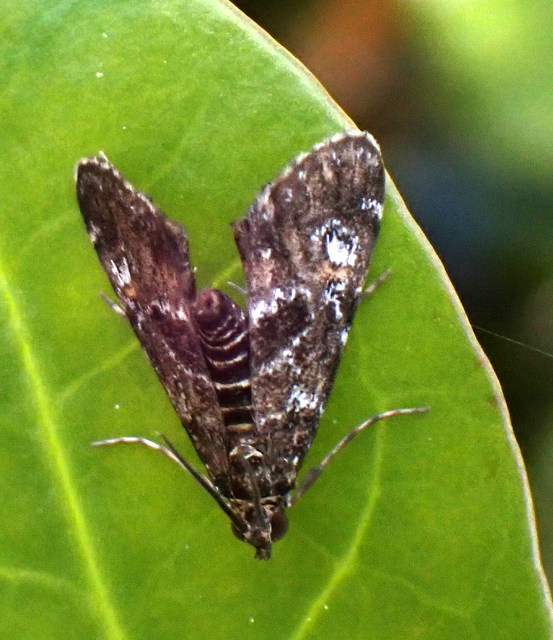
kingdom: Animalia
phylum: Arthropoda
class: Insecta
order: Lepidoptera
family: Crambidae
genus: Elophila
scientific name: Elophila obliteralis
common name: Waterlily leafcutter moth
